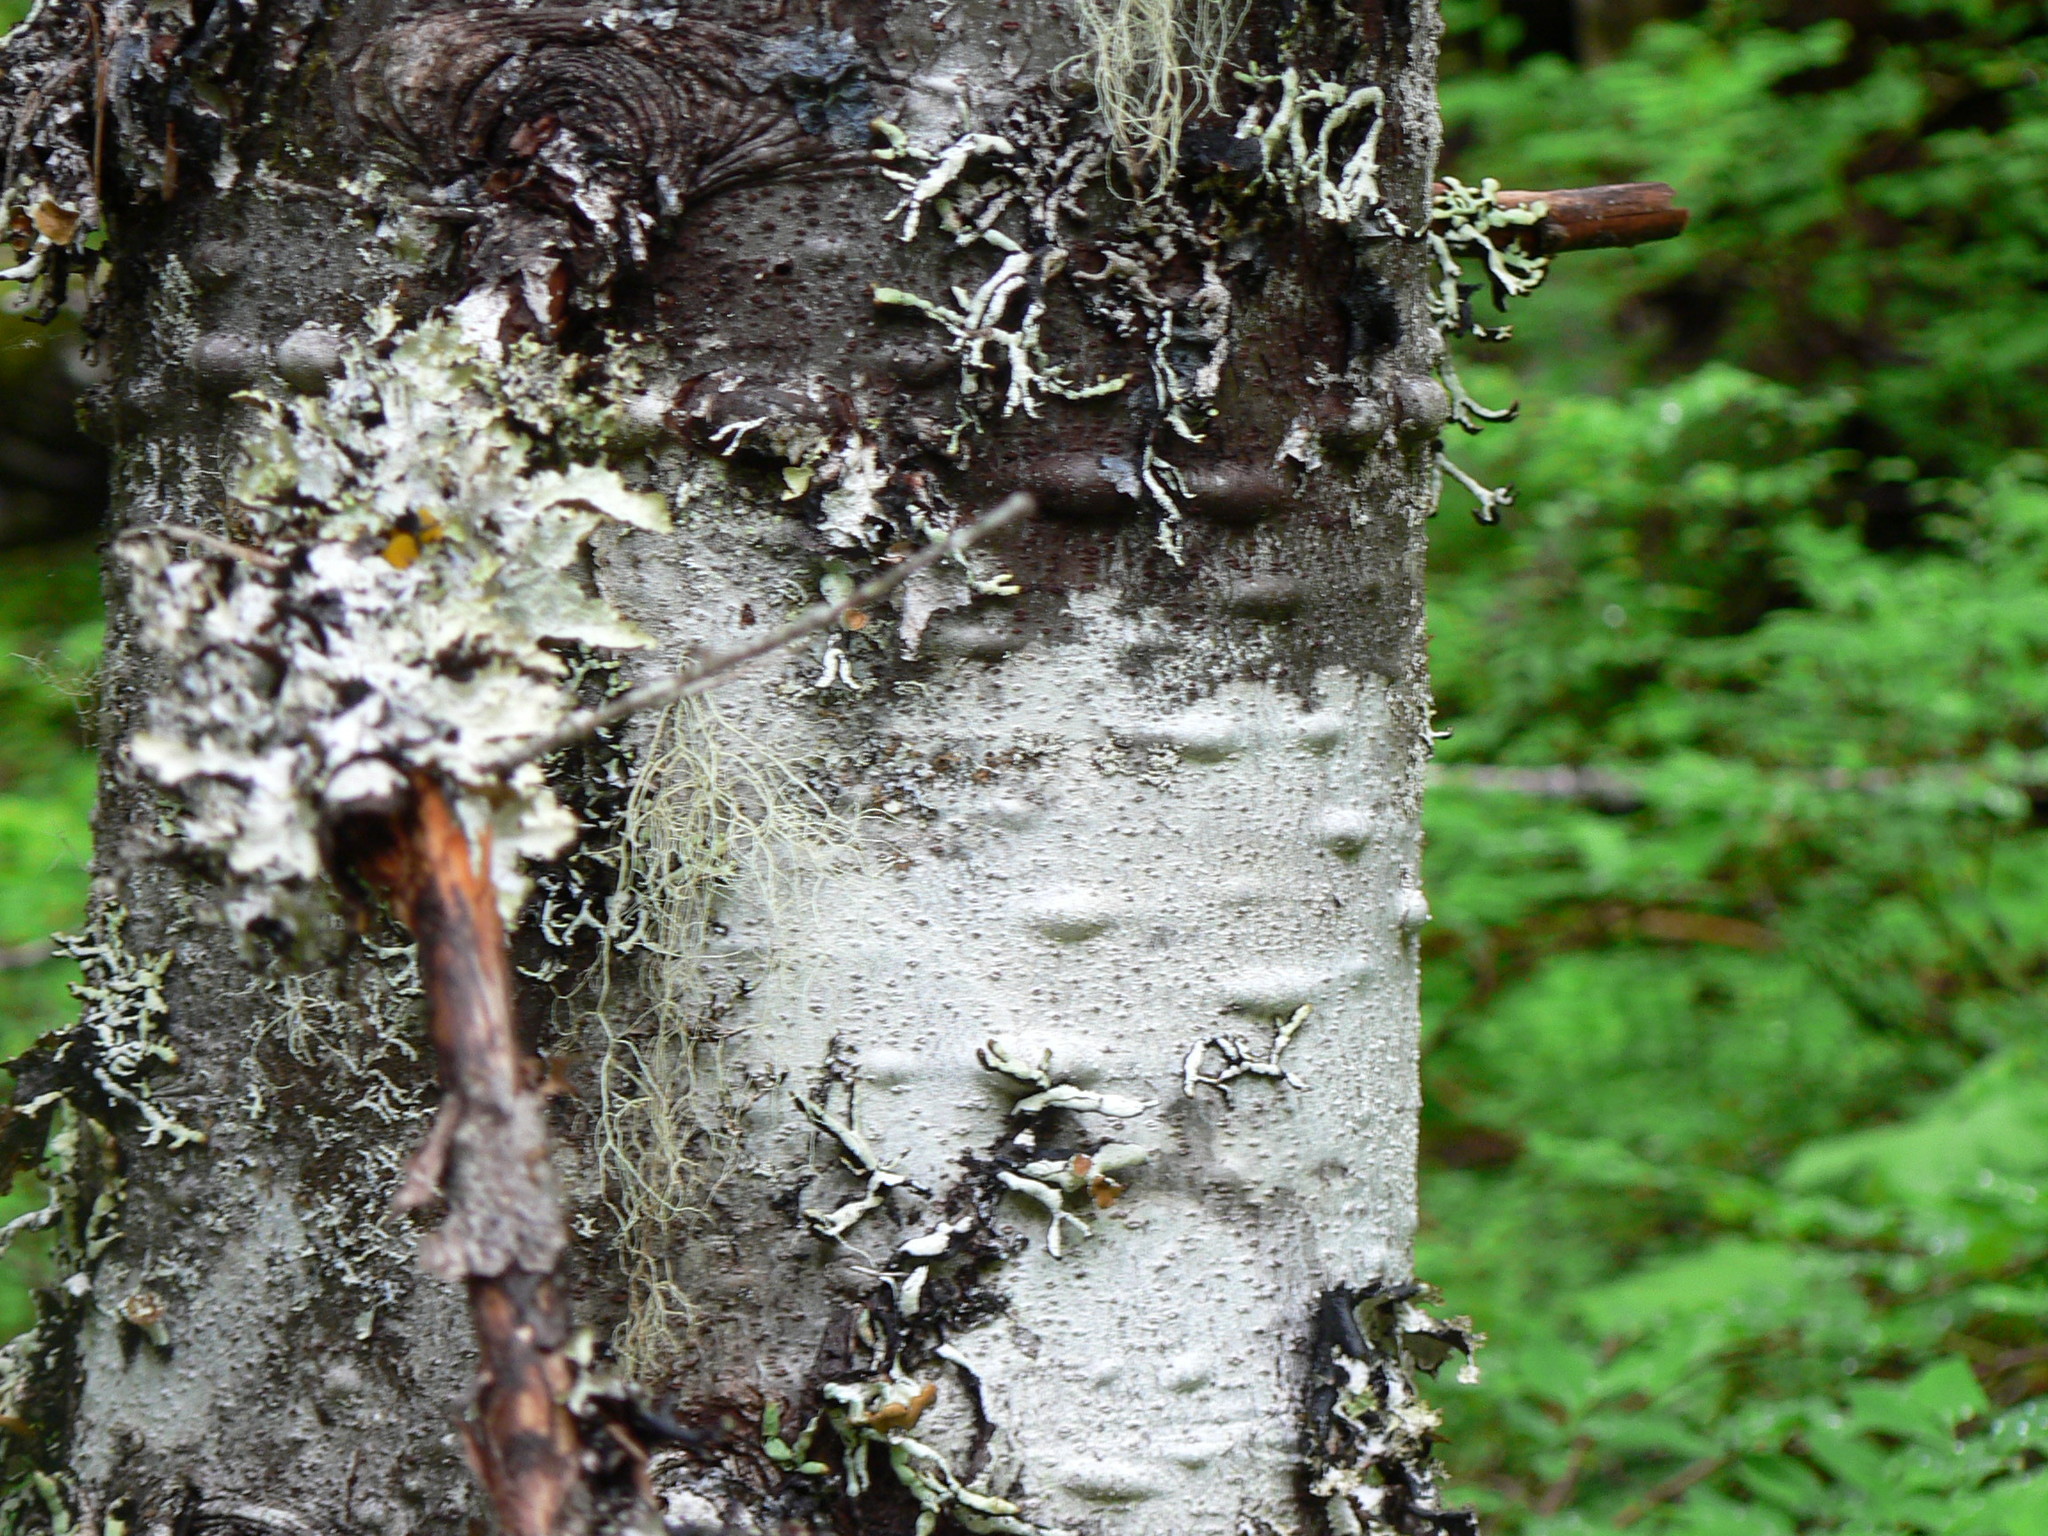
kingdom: Plantae
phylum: Tracheophyta
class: Pinopsida
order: Pinales
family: Pinaceae
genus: Abies
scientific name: Abies amabilis
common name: Pacific silver fir
